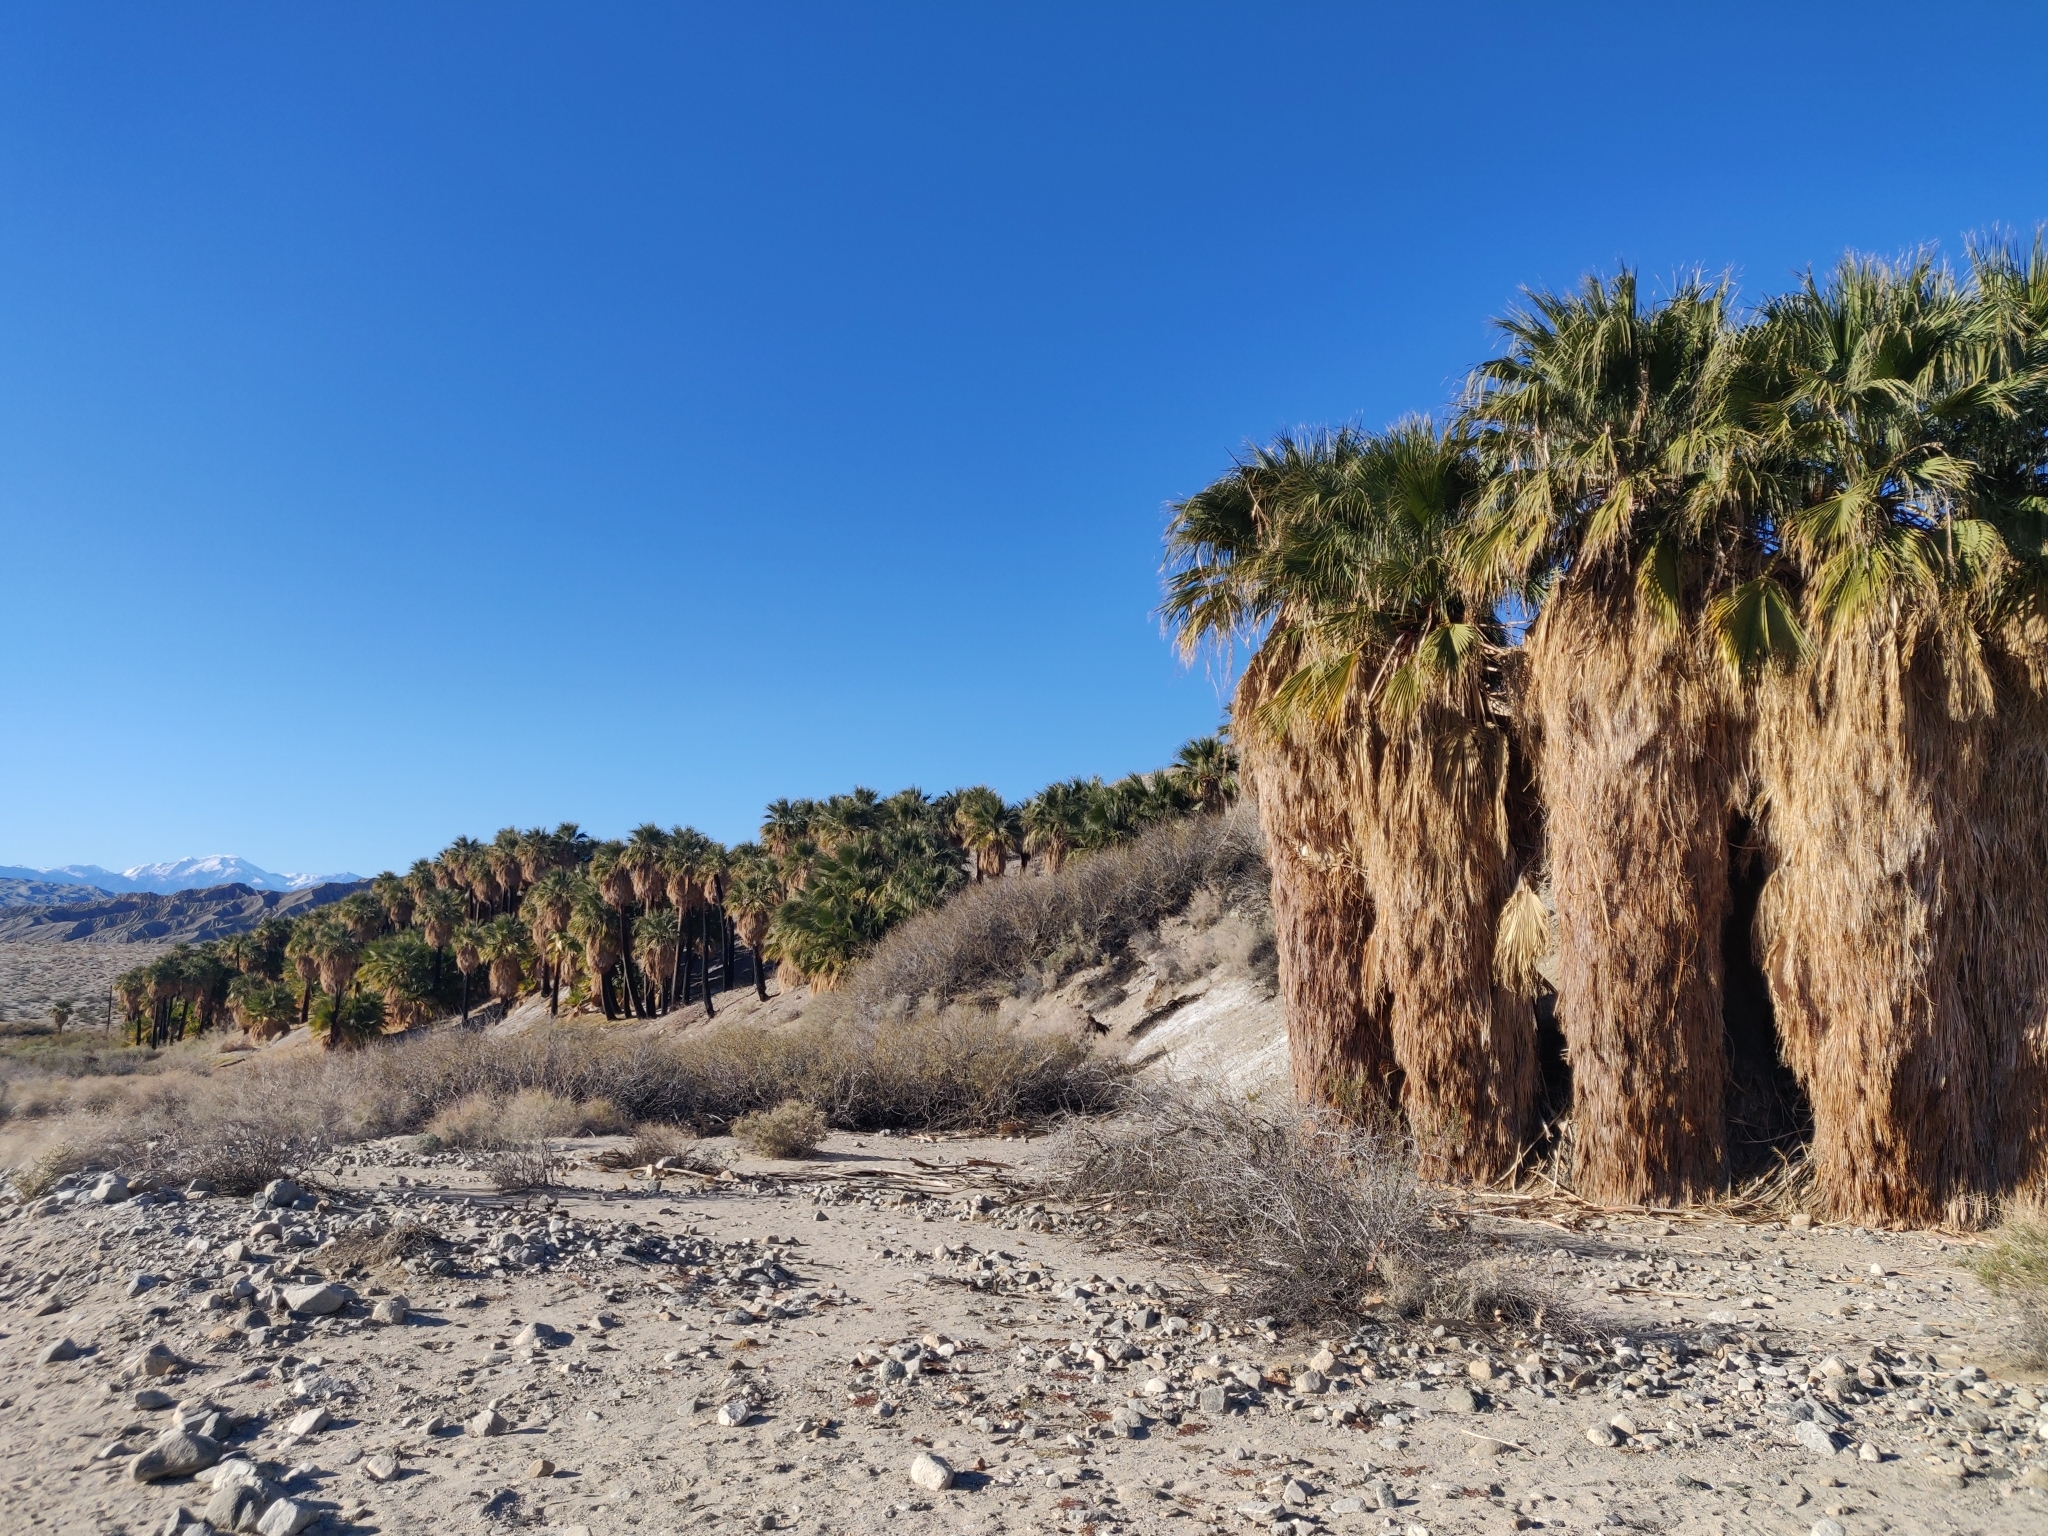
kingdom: Plantae
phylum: Tracheophyta
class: Liliopsida
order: Arecales
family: Arecaceae
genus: Washingtonia
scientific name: Washingtonia filifera
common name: California fan palm
